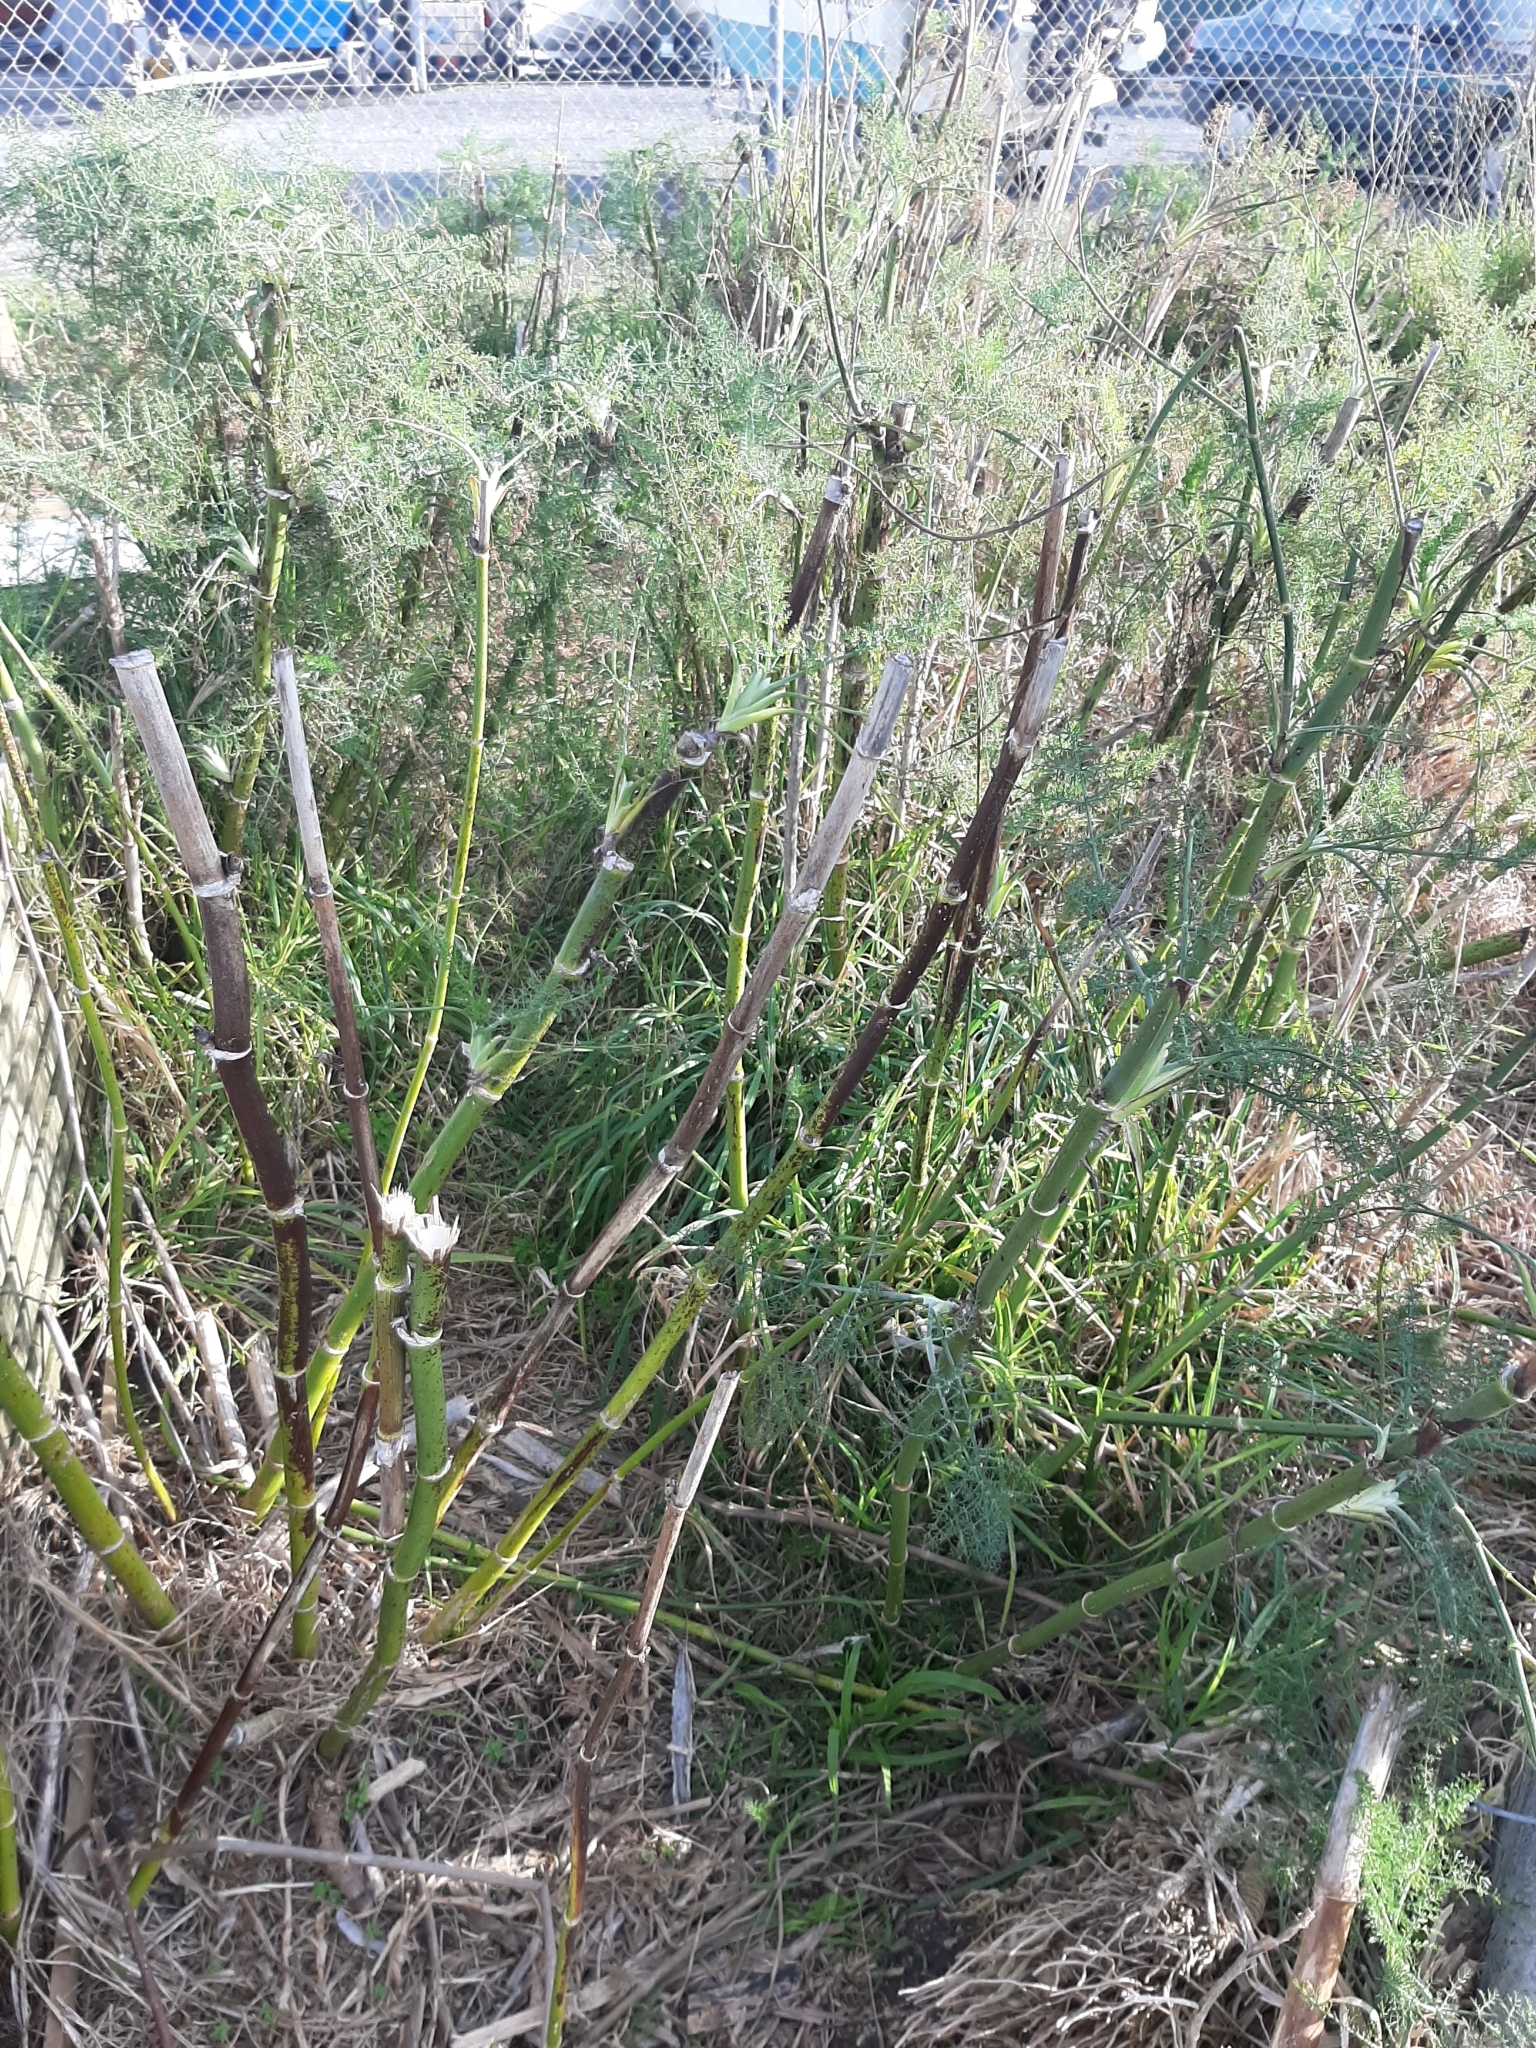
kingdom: Plantae
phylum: Tracheophyta
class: Magnoliopsida
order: Apiales
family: Apiaceae
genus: Foeniculum
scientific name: Foeniculum vulgare
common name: Fennel
